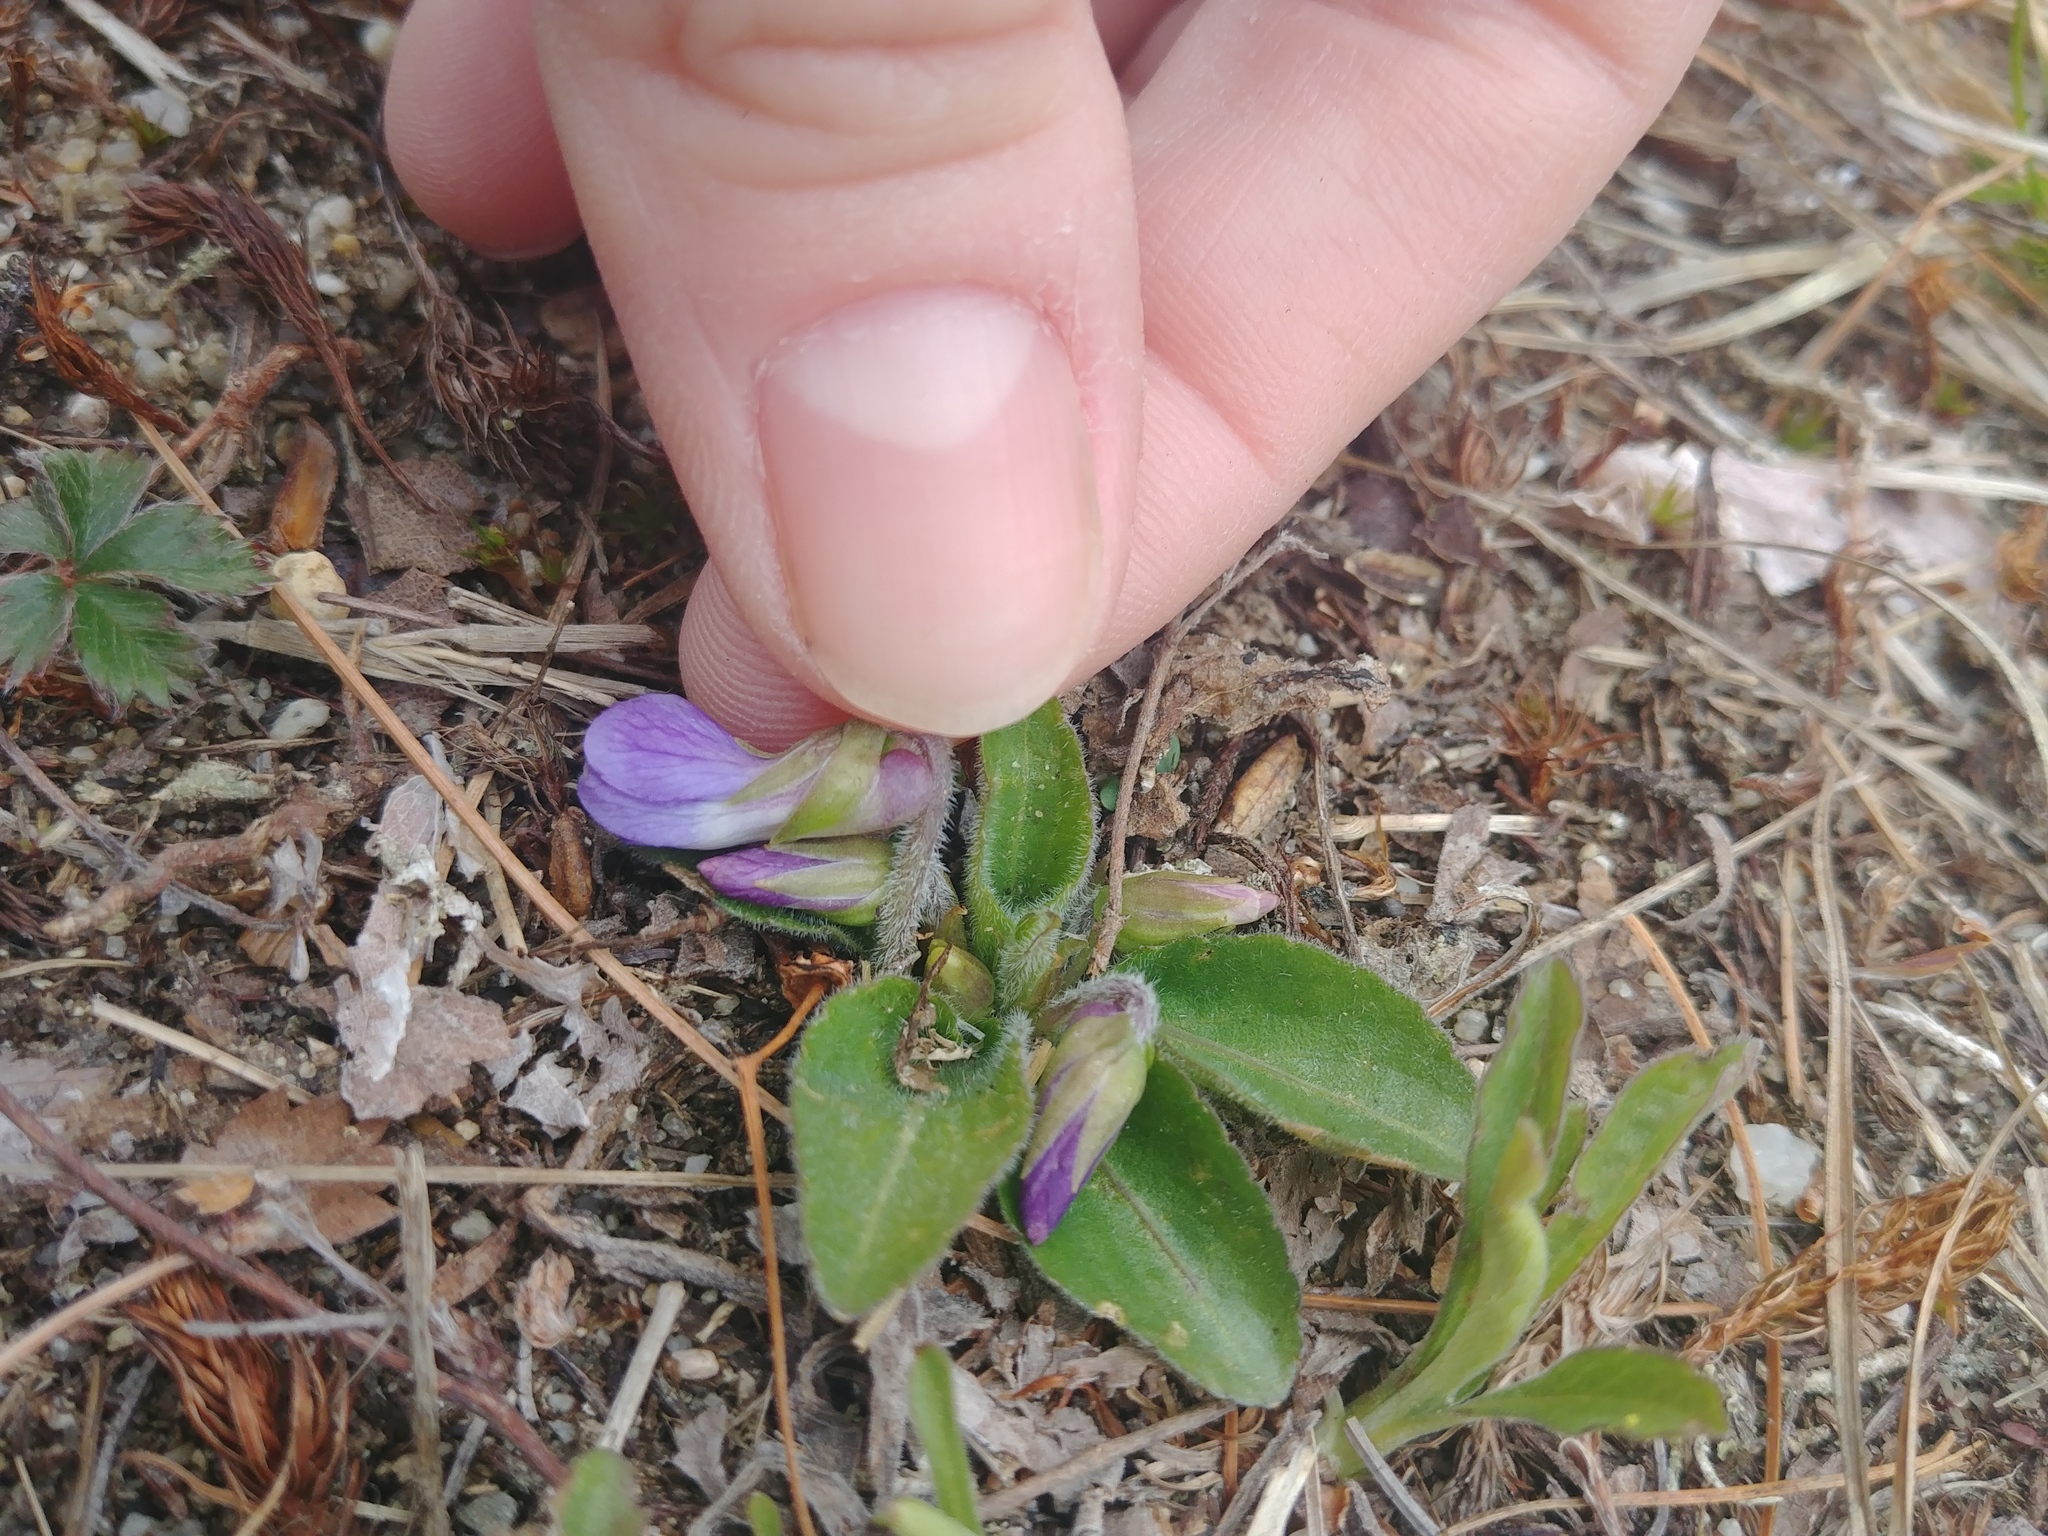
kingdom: Plantae
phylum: Tracheophyta
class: Magnoliopsida
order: Malpighiales
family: Violaceae
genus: Viola
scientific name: Viola sagittata
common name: Arrowhead violet
